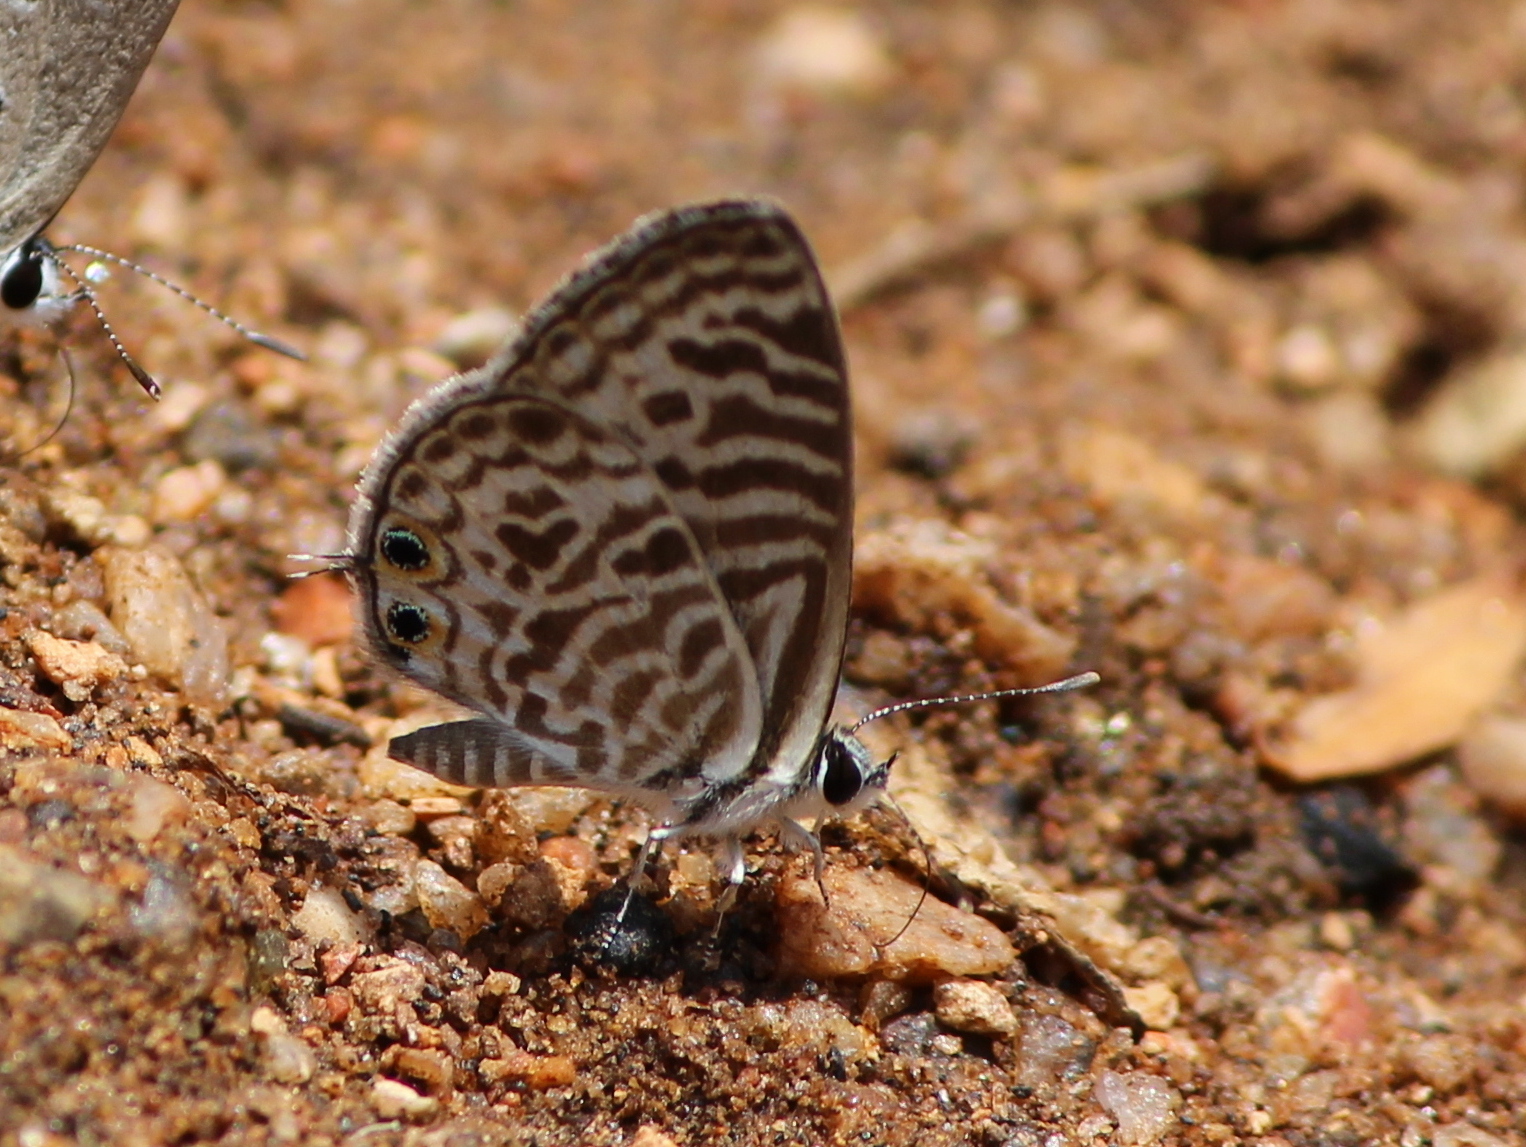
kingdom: Animalia
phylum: Arthropoda
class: Insecta
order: Lepidoptera
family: Lycaenidae
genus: Leptotes
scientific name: Leptotes plinius
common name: Zebra blue
